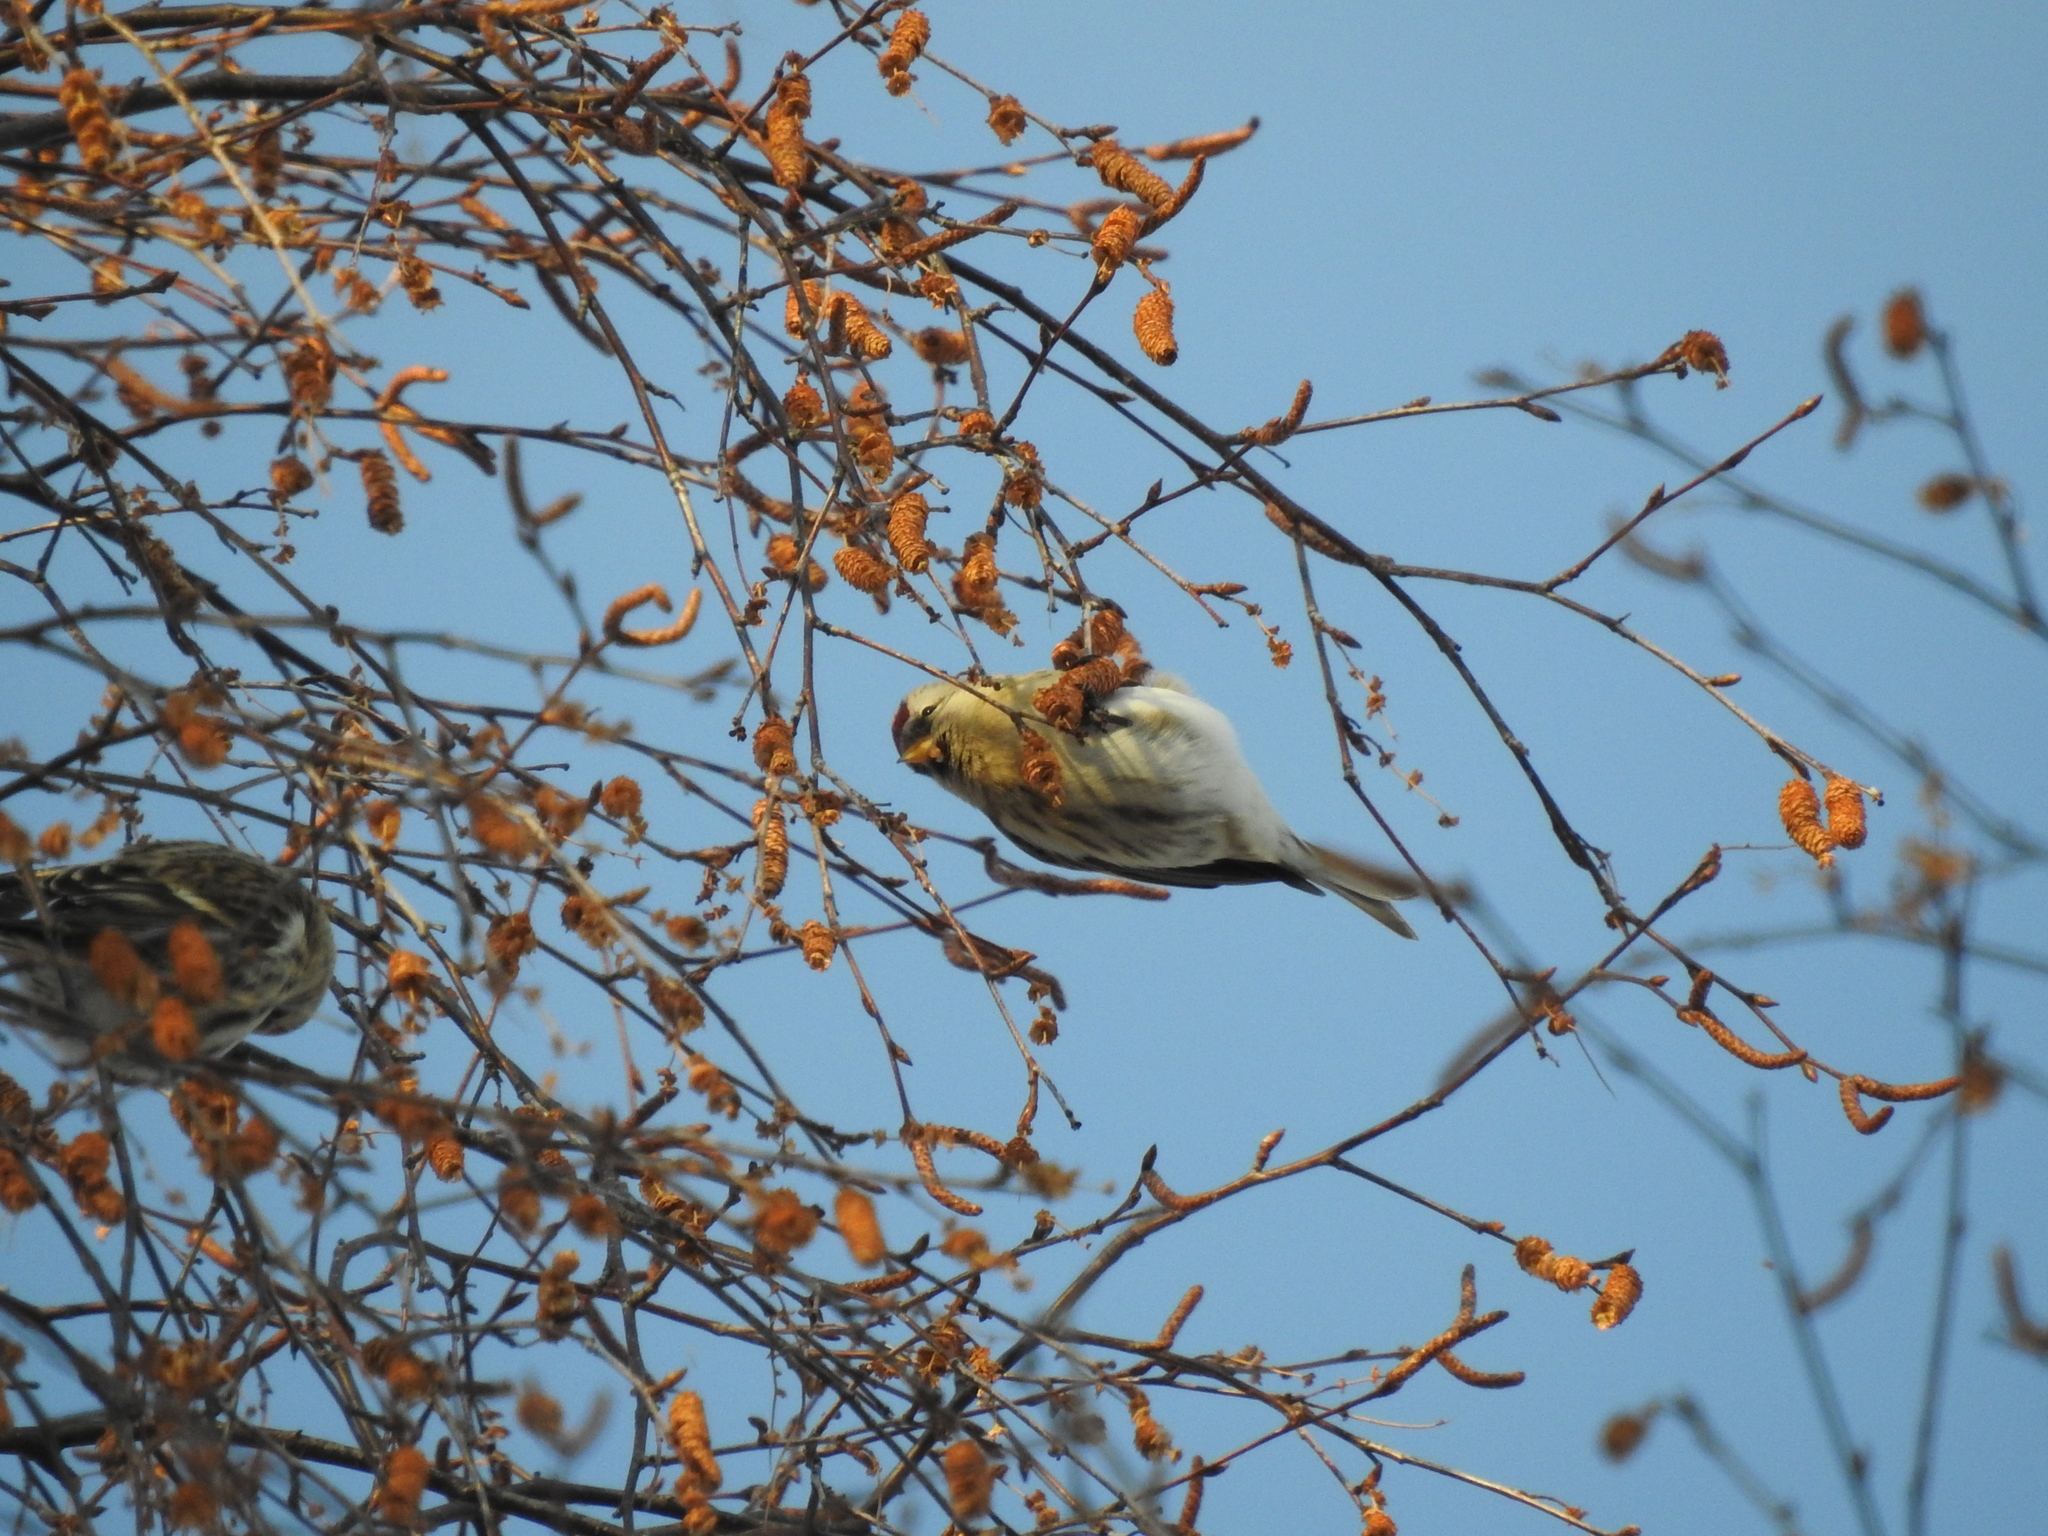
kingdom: Animalia
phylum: Chordata
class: Aves
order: Passeriformes
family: Fringillidae
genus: Acanthis
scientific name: Acanthis flammea
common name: Common redpoll
